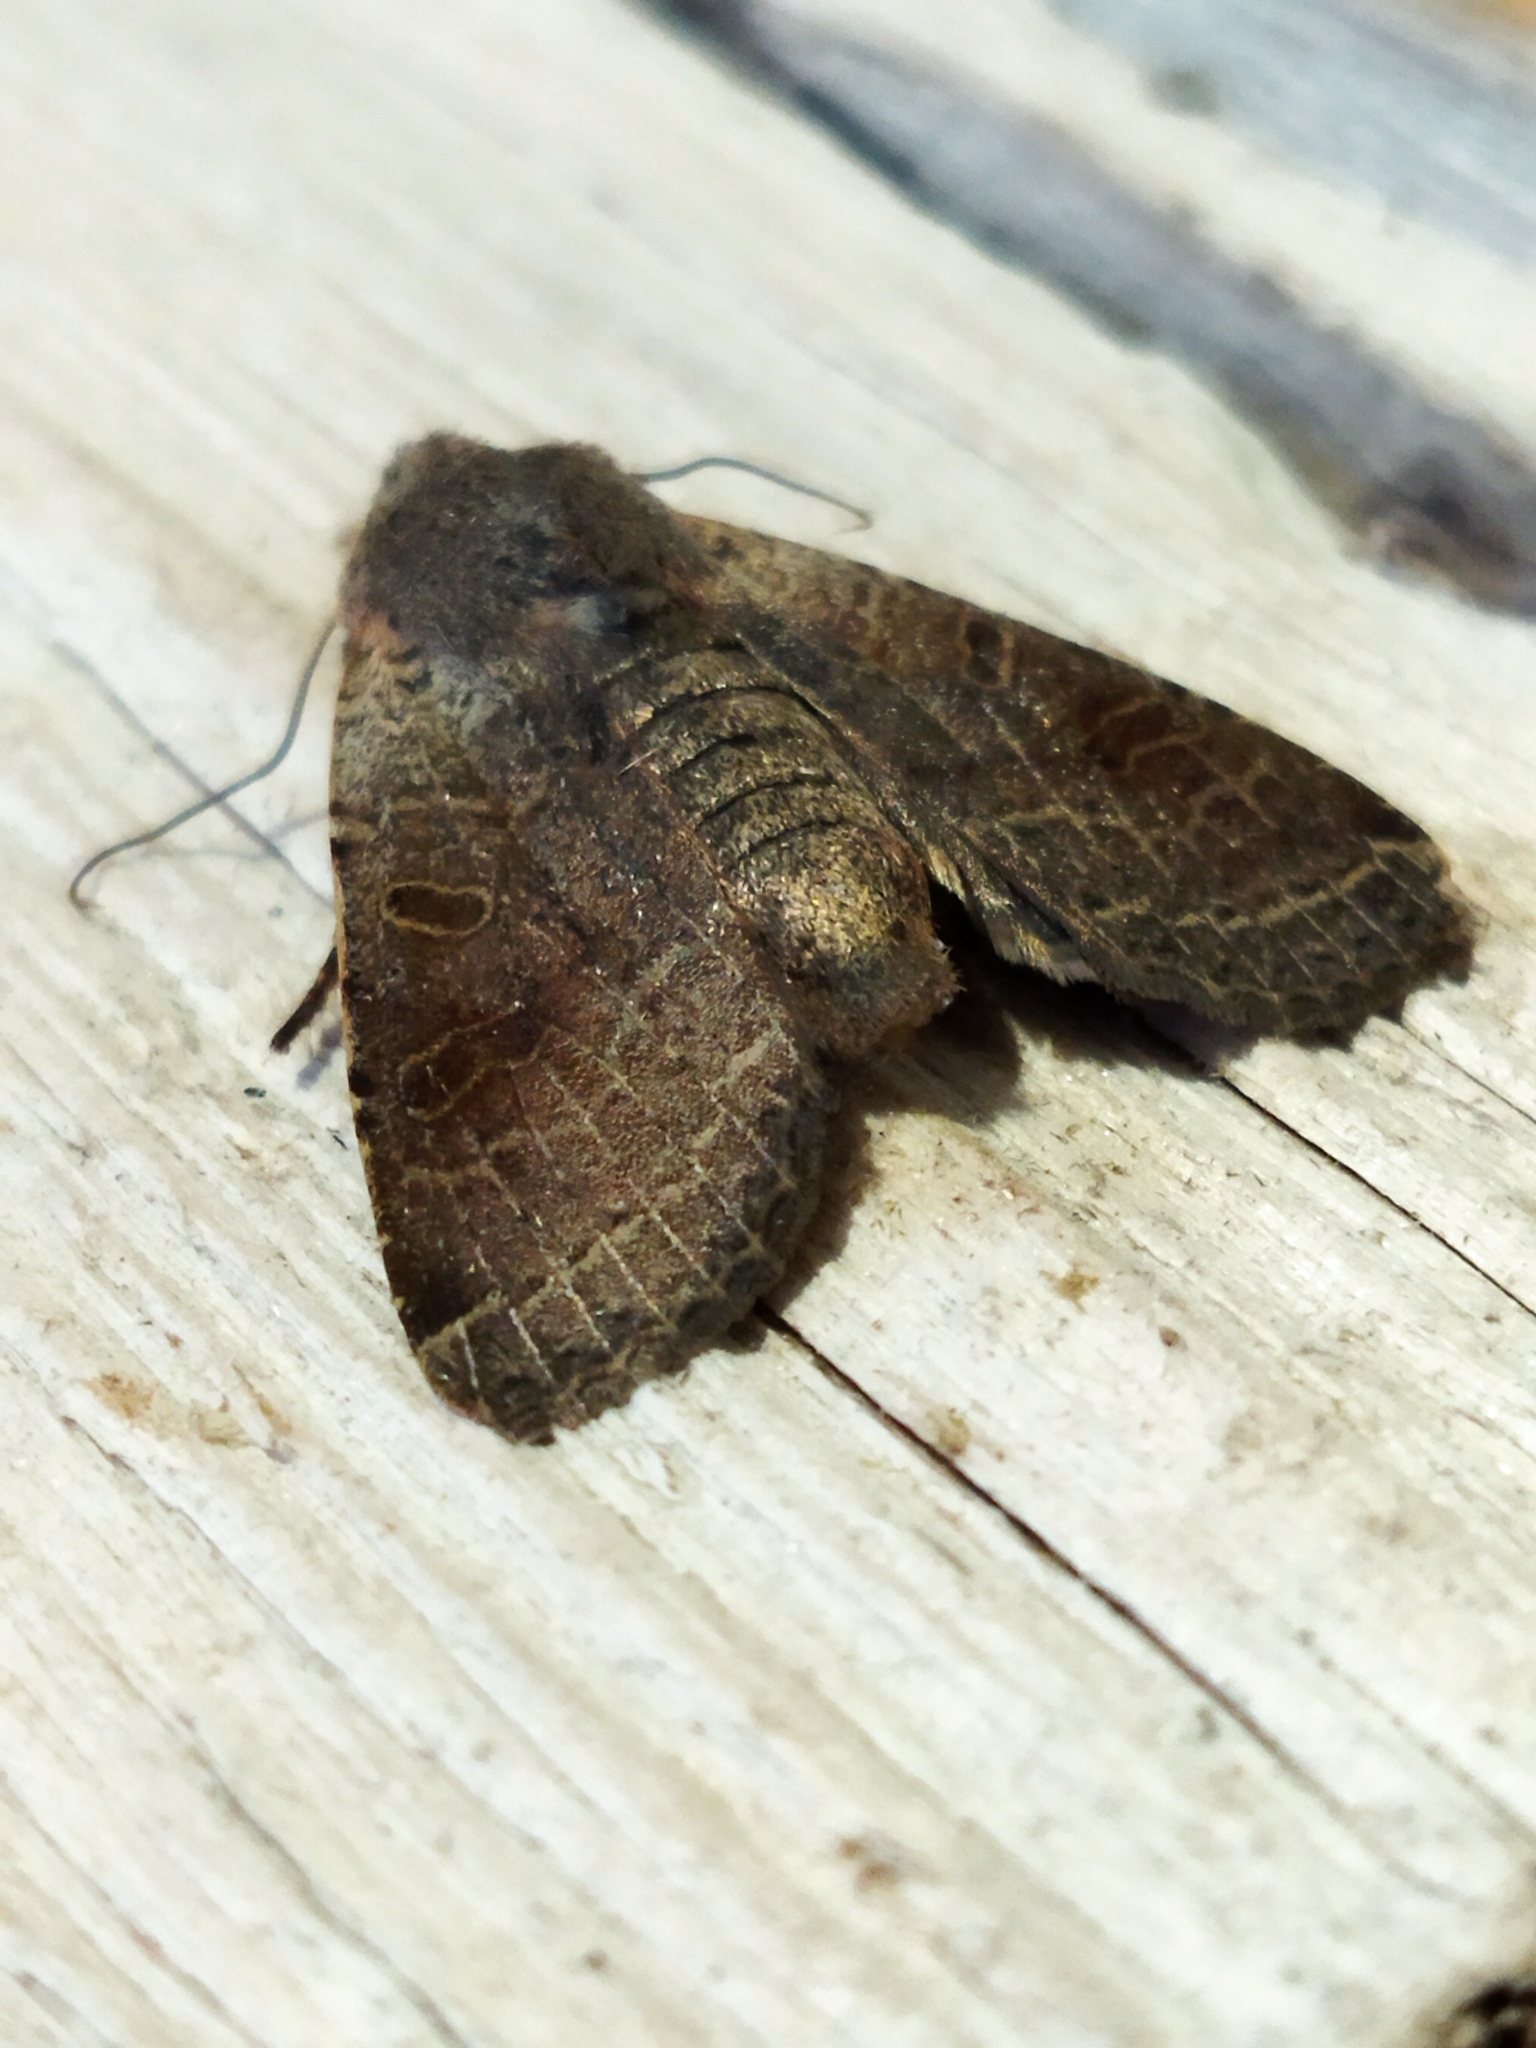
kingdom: Animalia
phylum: Arthropoda
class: Insecta
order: Lepidoptera
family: Noctuidae
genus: Agrochola
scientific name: Agrochola lychnidis
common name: Beaded chestnut
